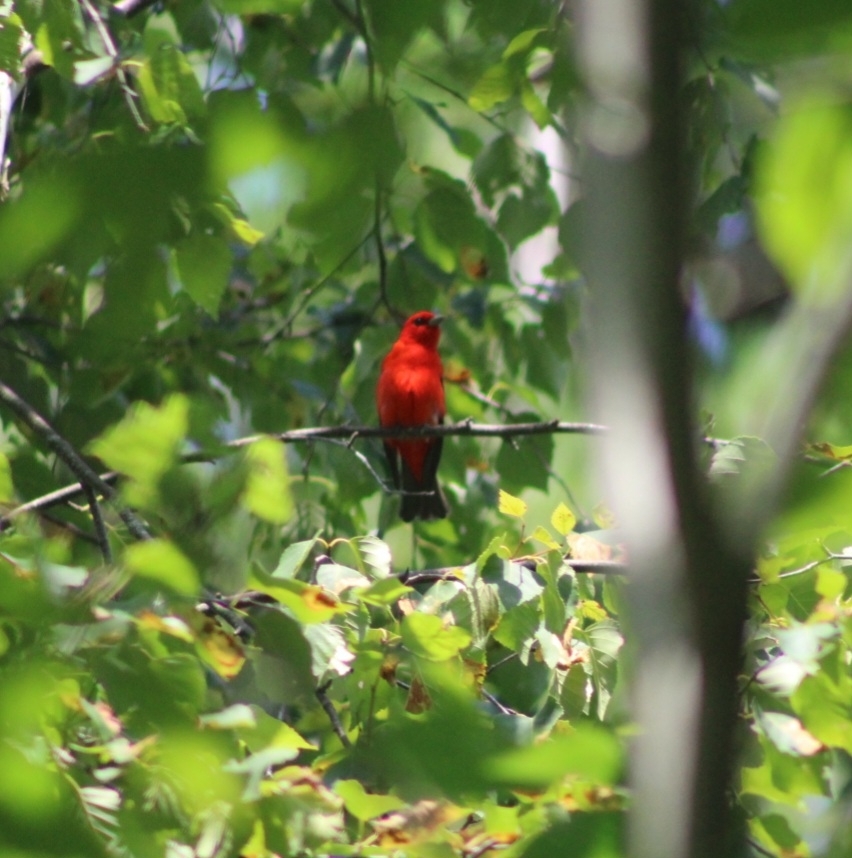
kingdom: Animalia
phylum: Chordata
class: Aves
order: Passeriformes
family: Cardinalidae
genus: Piranga
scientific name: Piranga olivacea
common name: Scarlet tanager
